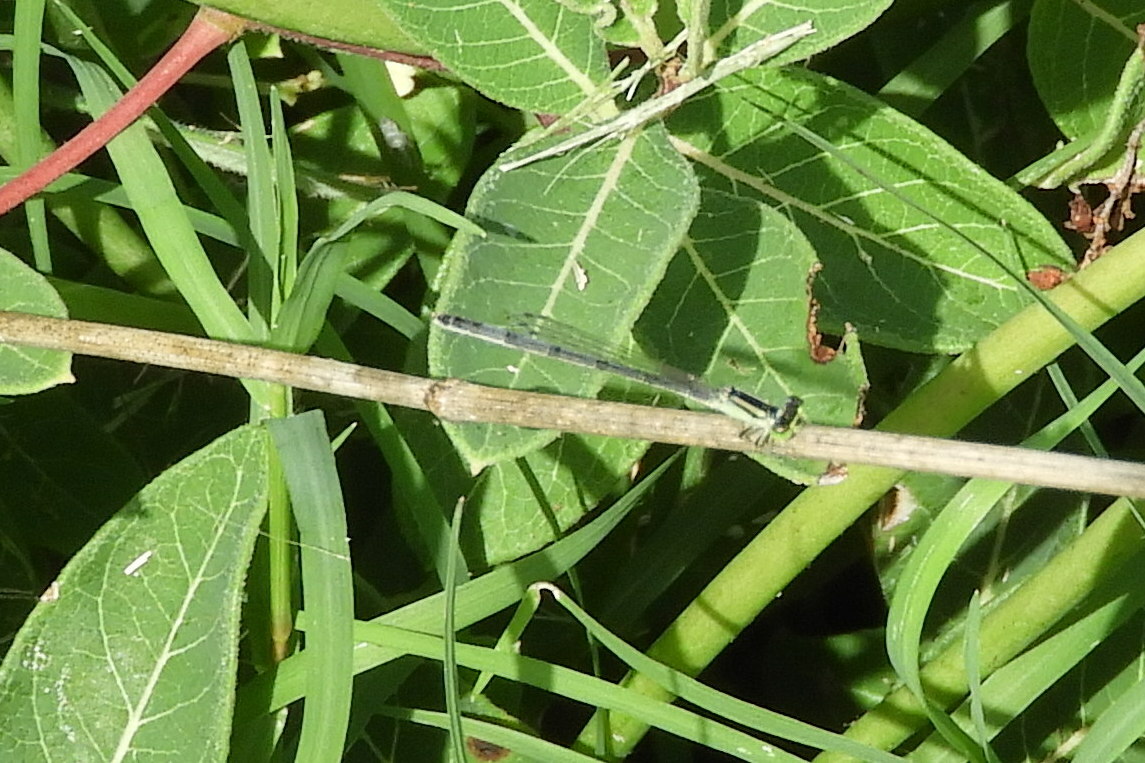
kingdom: Animalia
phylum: Arthropoda
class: Insecta
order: Odonata
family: Coenagrionidae
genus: Ischnura
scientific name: Ischnura verticalis
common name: Eastern forktail
